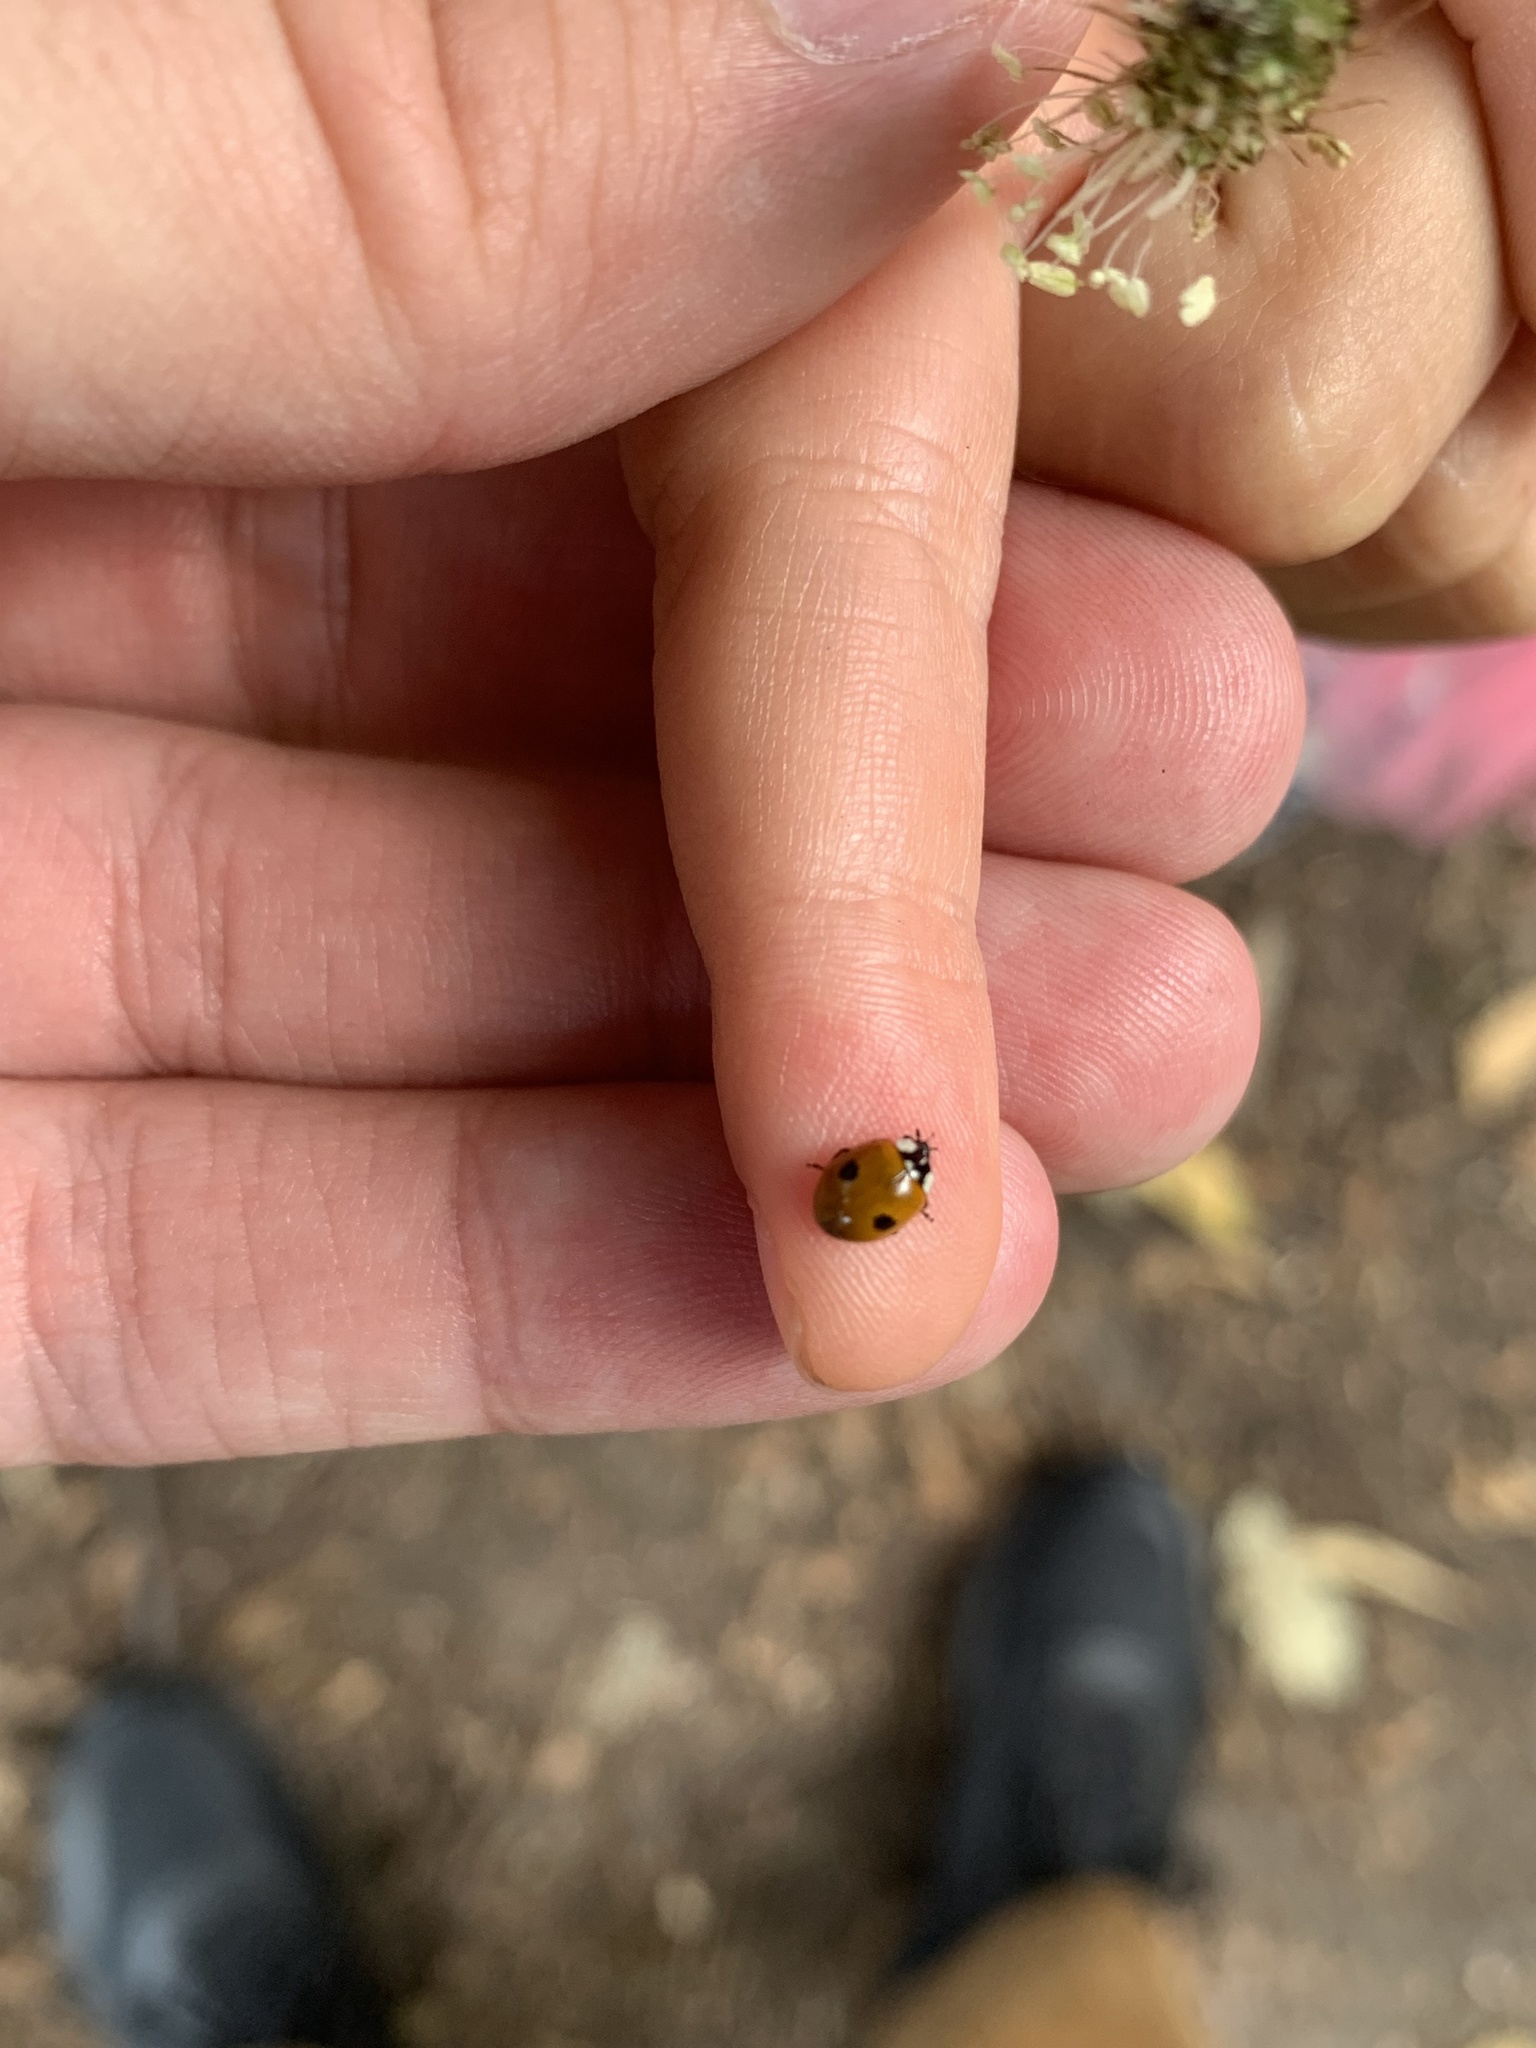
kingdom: Animalia
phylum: Arthropoda
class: Insecta
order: Coleoptera
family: Coccinellidae
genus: Adalia
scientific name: Adalia bipunctata
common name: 2-spot ladybird
